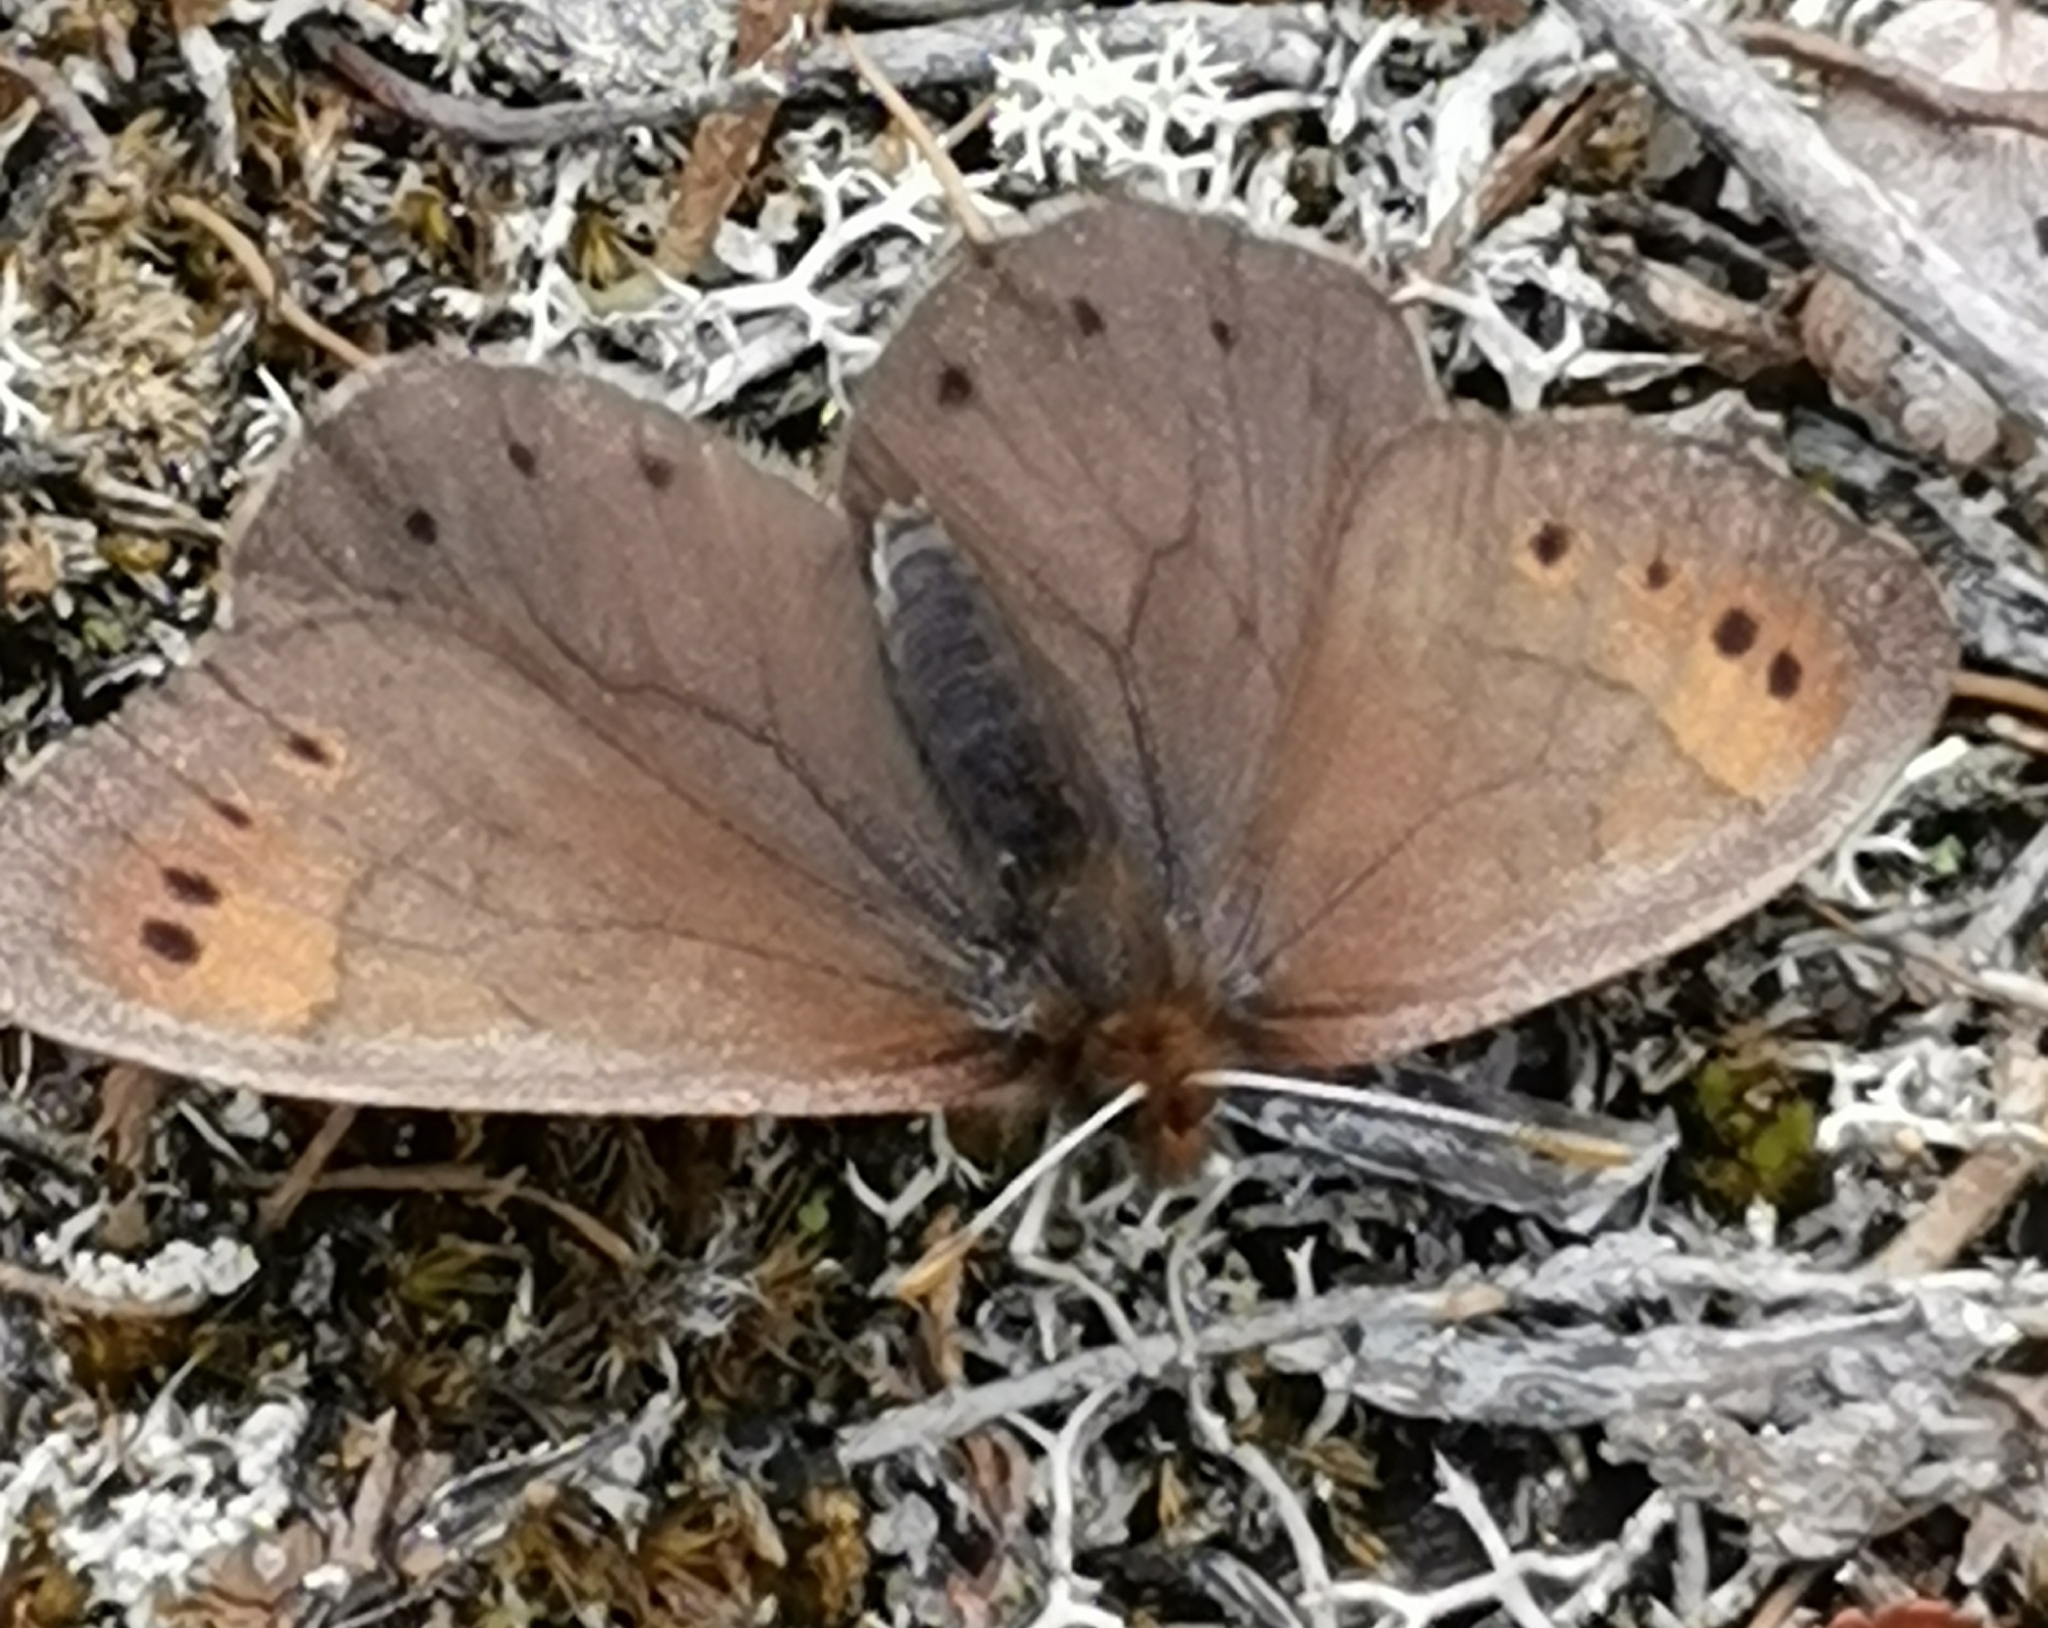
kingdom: Animalia
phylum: Arthropoda
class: Insecta
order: Lepidoptera
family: Nymphalidae
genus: Erebia
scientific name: Erebia pandrose
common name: Dewy ringlet
